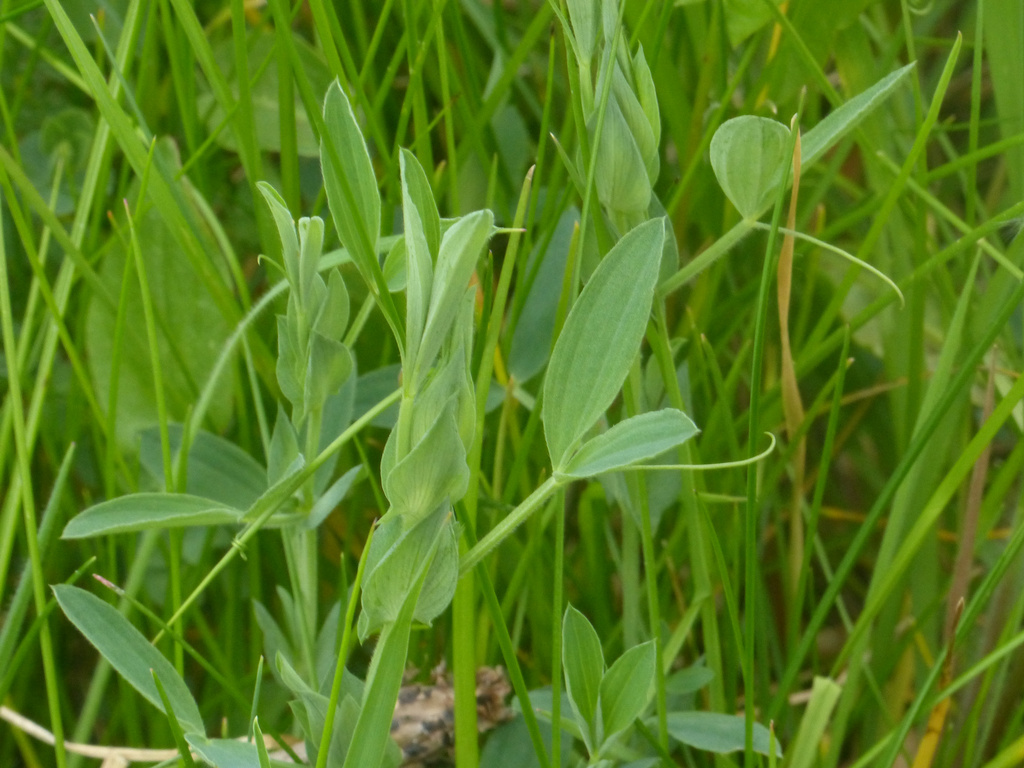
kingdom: Plantae
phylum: Tracheophyta
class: Magnoliopsida
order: Fabales
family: Fabaceae
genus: Lathyrus
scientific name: Lathyrus pratensis
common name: Meadow vetchling
